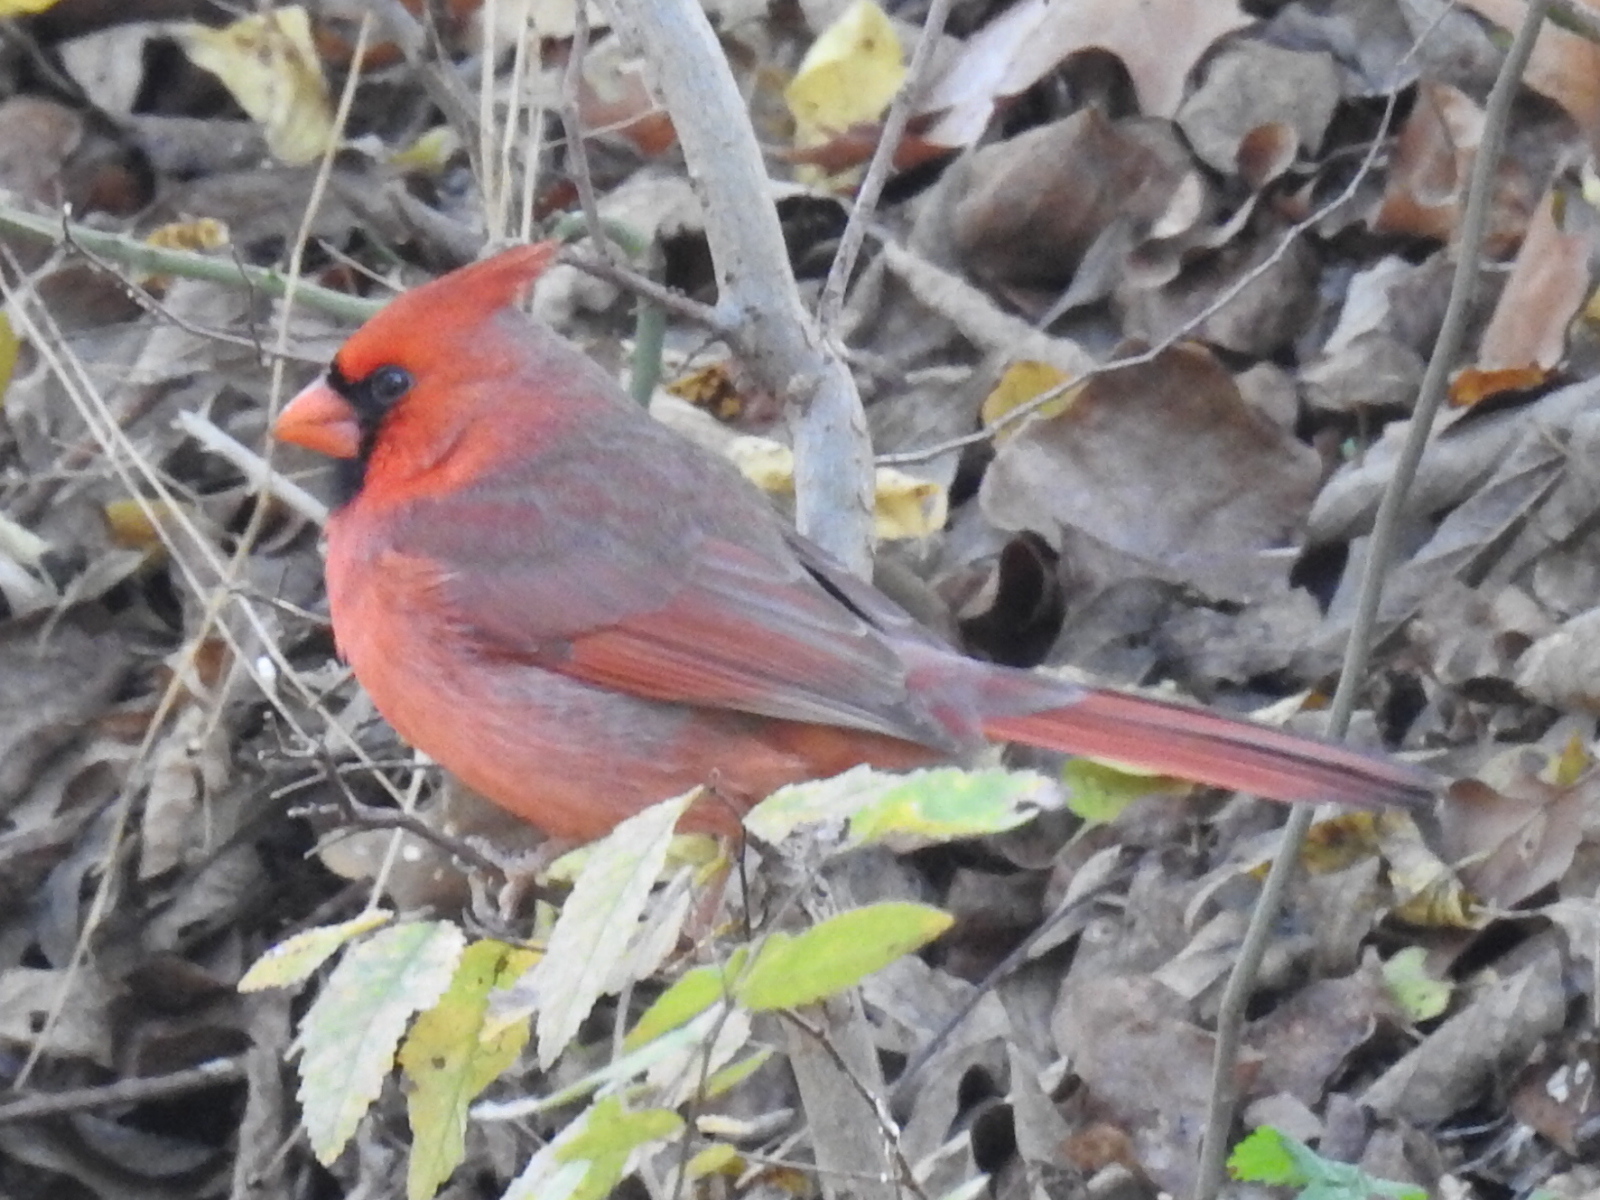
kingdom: Animalia
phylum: Chordata
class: Aves
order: Passeriformes
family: Cardinalidae
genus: Cardinalis
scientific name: Cardinalis cardinalis
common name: Northern cardinal
